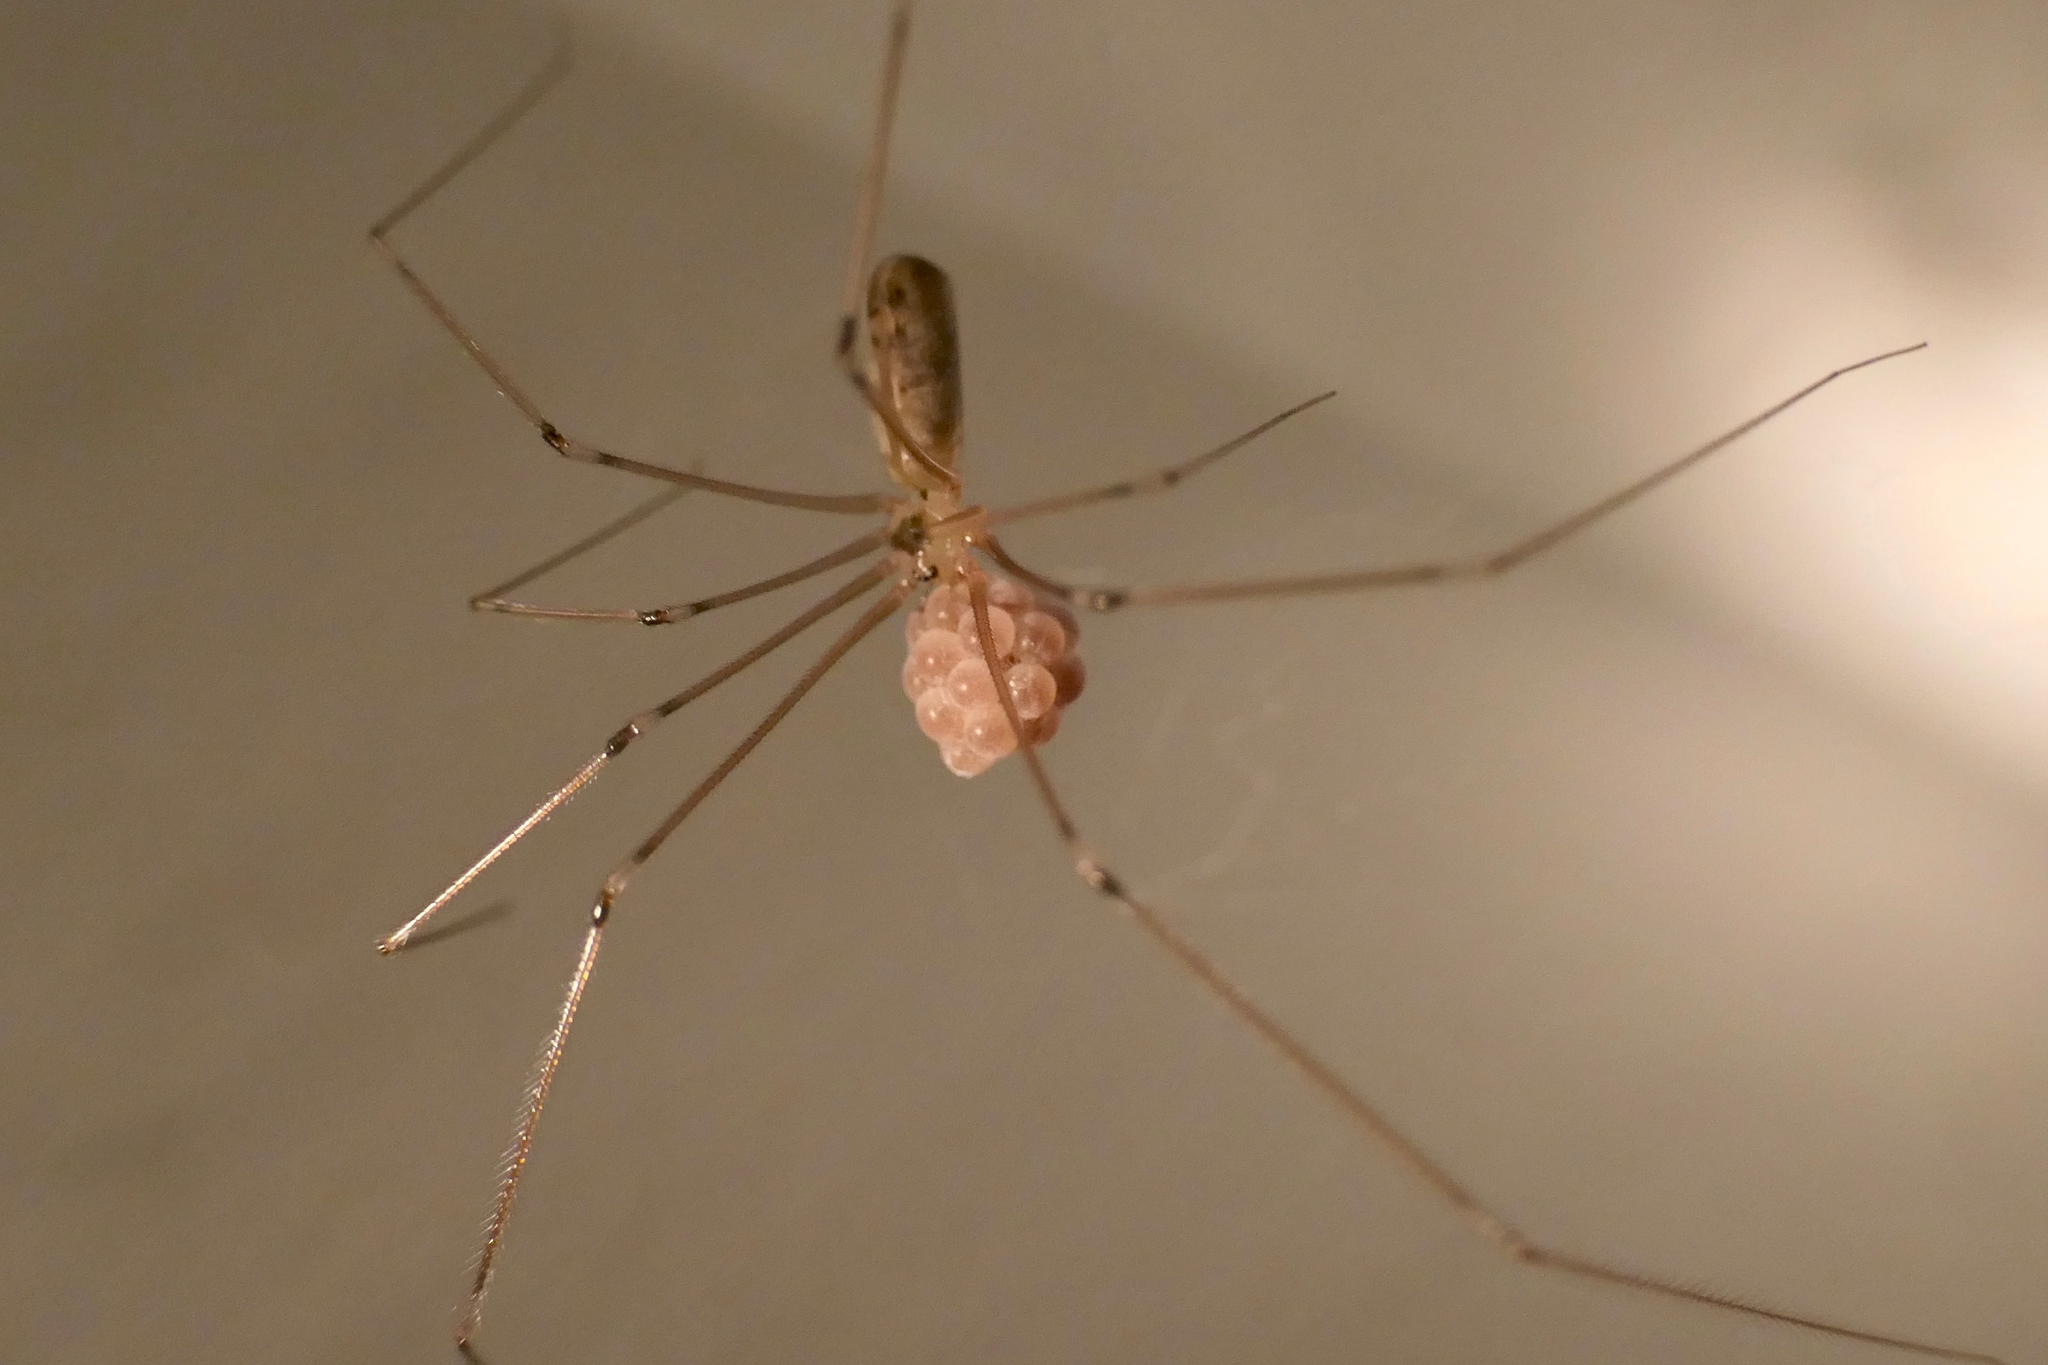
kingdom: Animalia
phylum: Arthropoda
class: Arachnida
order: Araneae
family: Pholcidae
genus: Pholcus
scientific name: Pholcus phalangioides
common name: Longbodied cellar spider
